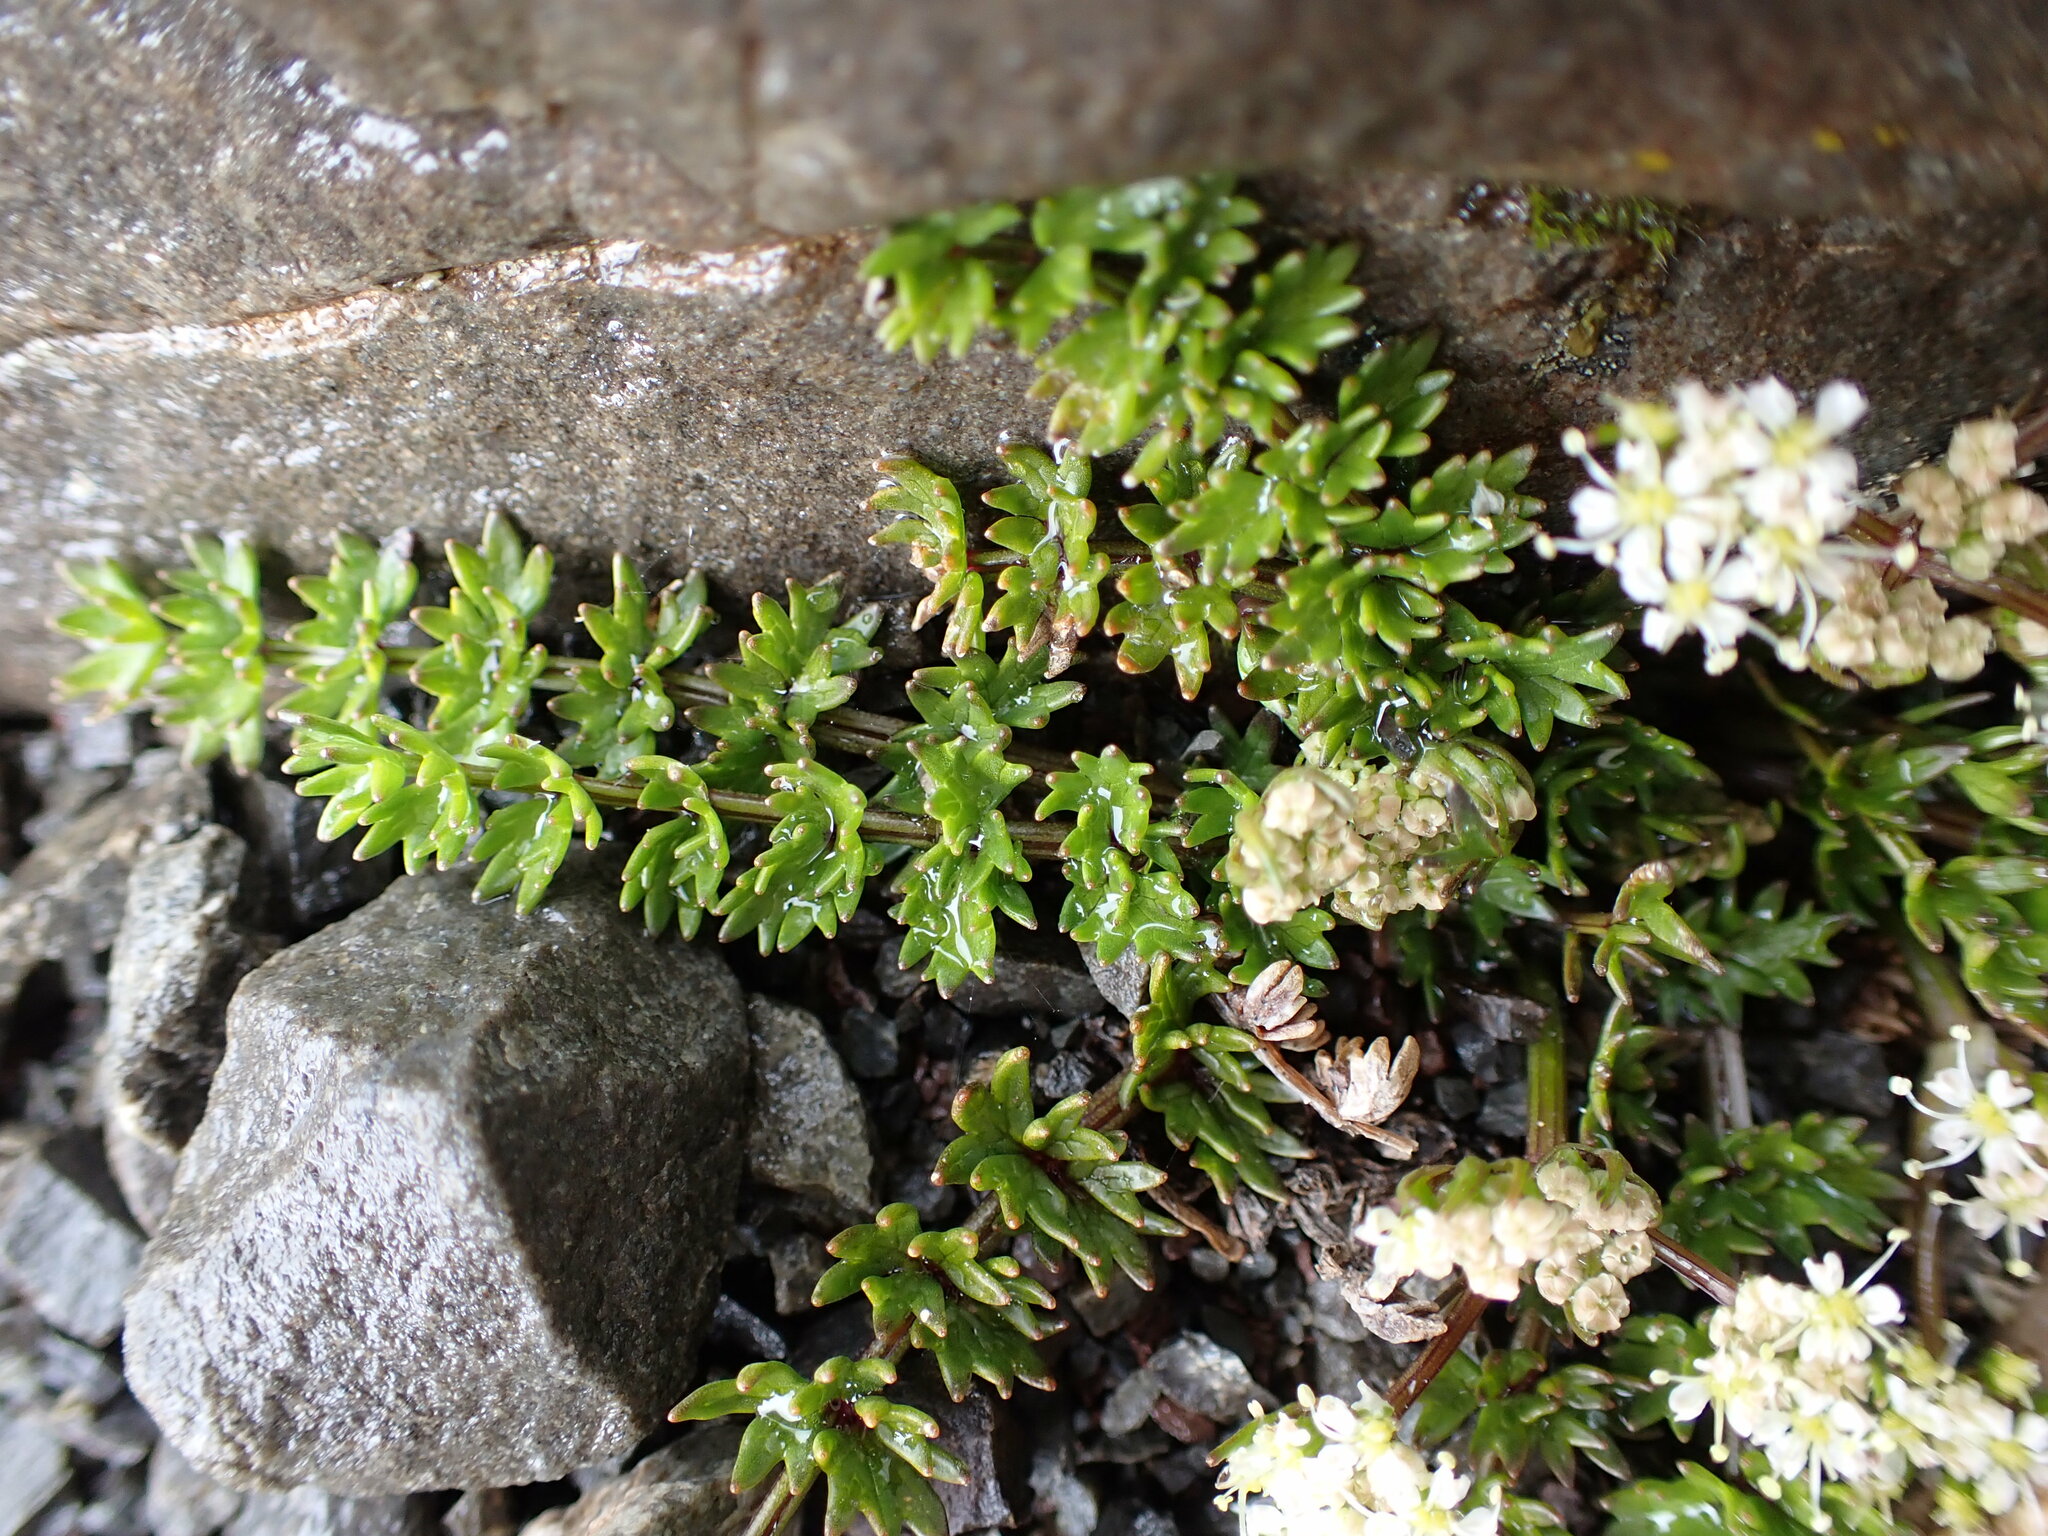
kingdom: Plantae
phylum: Tracheophyta
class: Magnoliopsida
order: Apiales
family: Apiaceae
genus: Gingidia
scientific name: Gingidia decipiens
